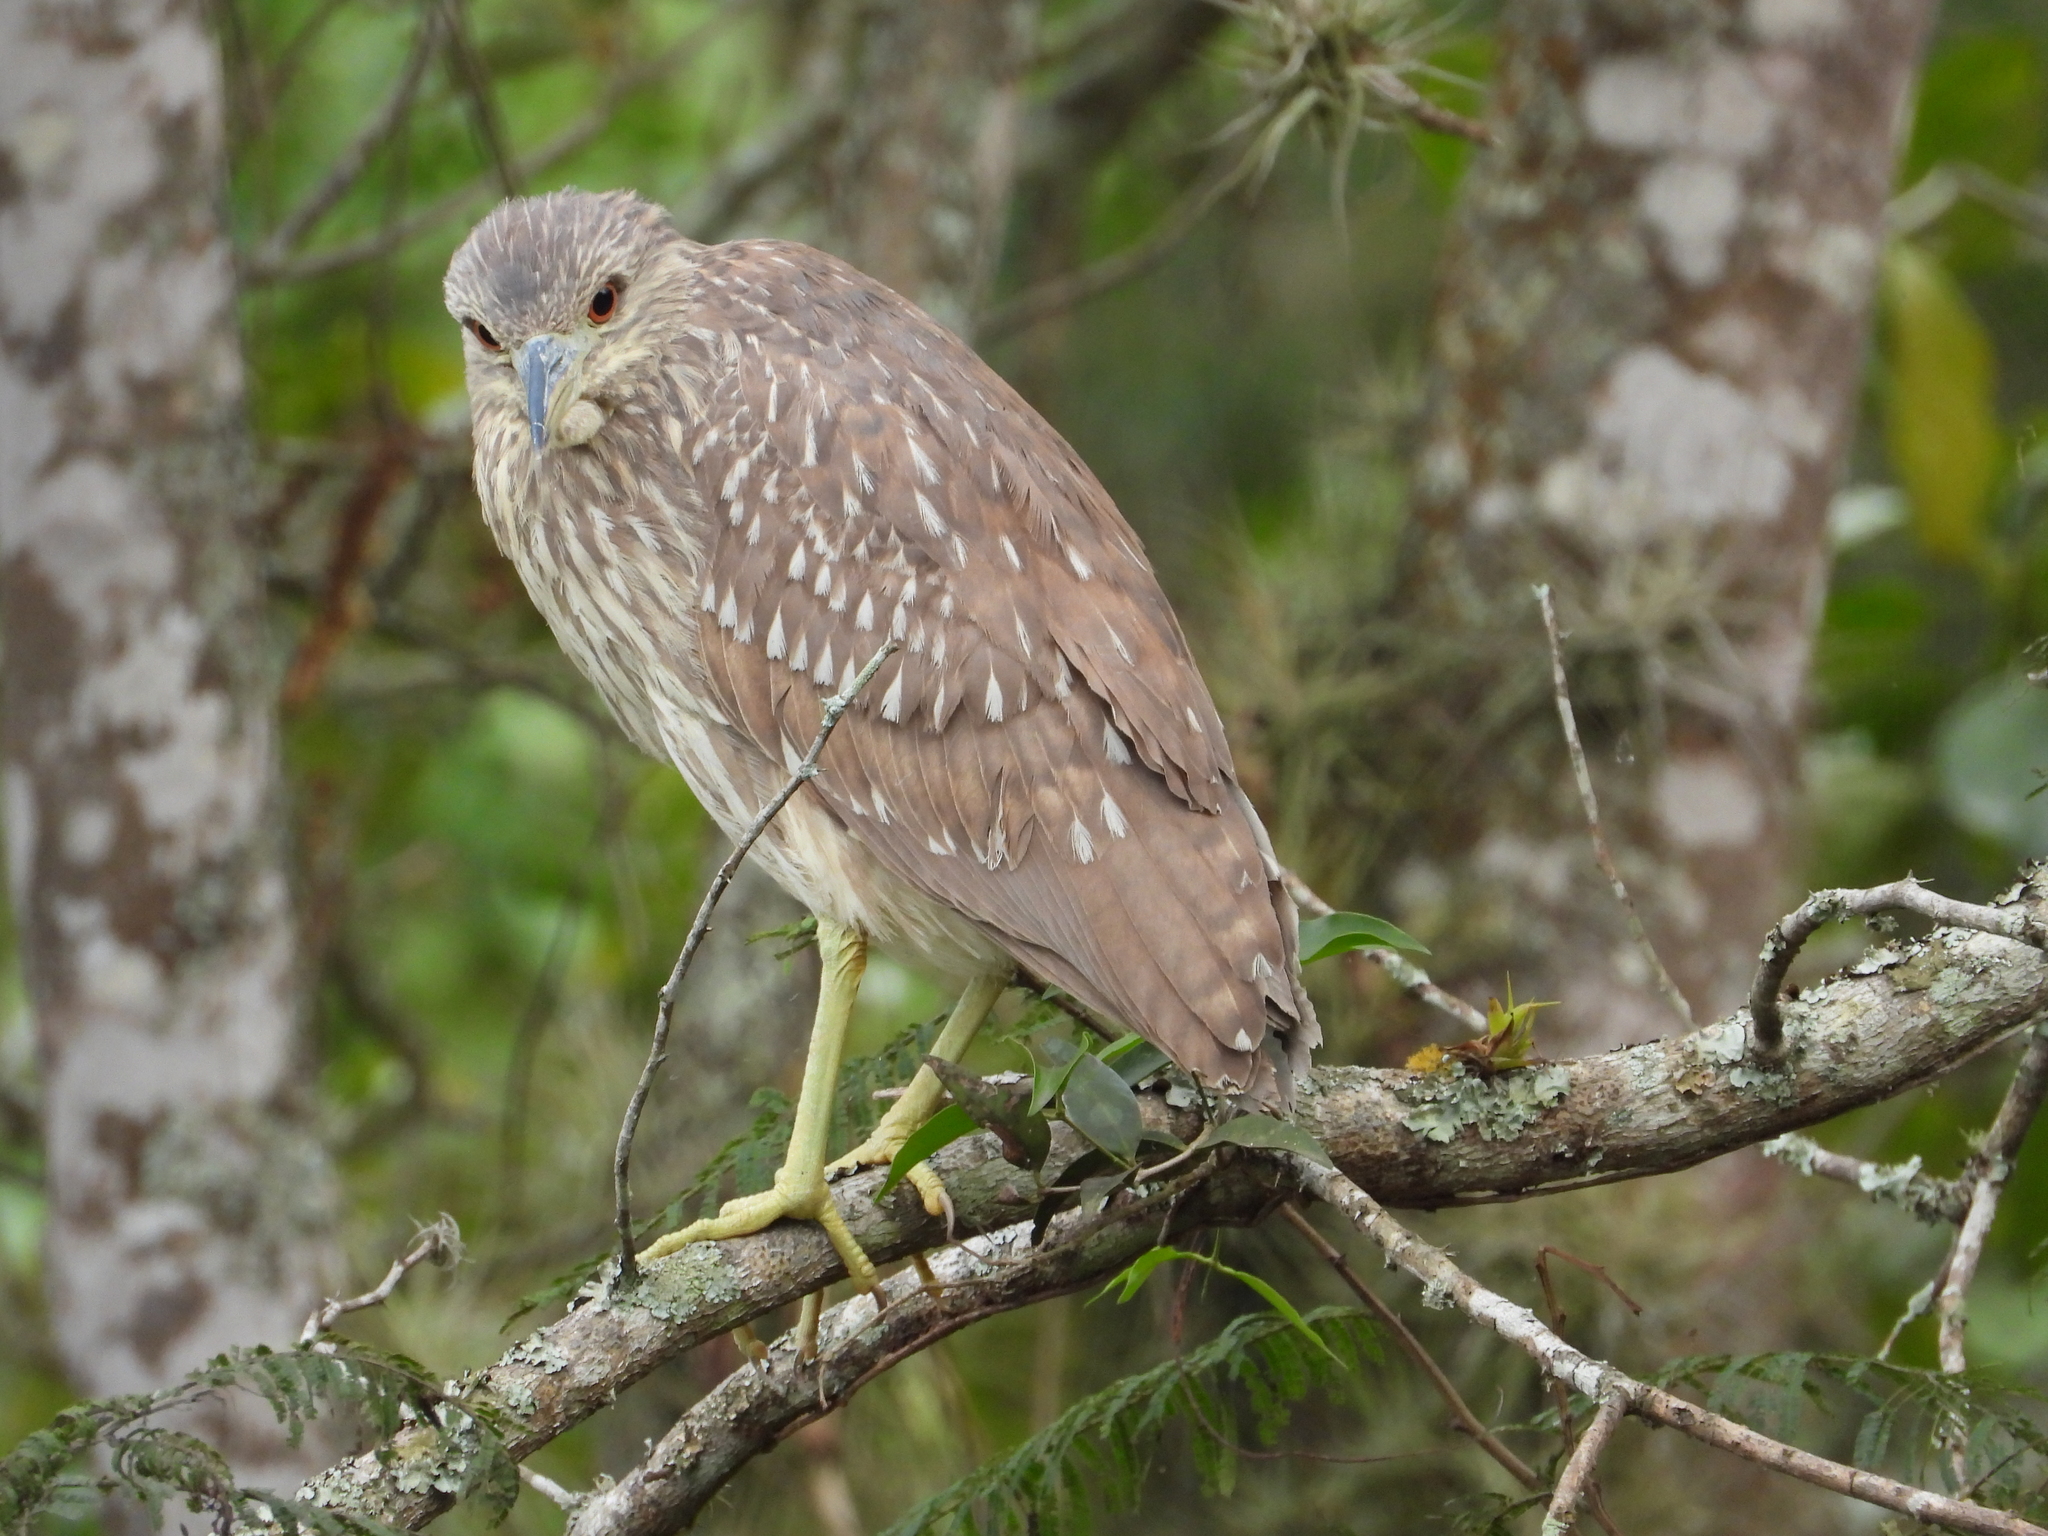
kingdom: Animalia
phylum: Chordata
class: Aves
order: Pelecaniformes
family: Ardeidae
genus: Nycticorax
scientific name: Nycticorax nycticorax
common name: Black-crowned night heron
